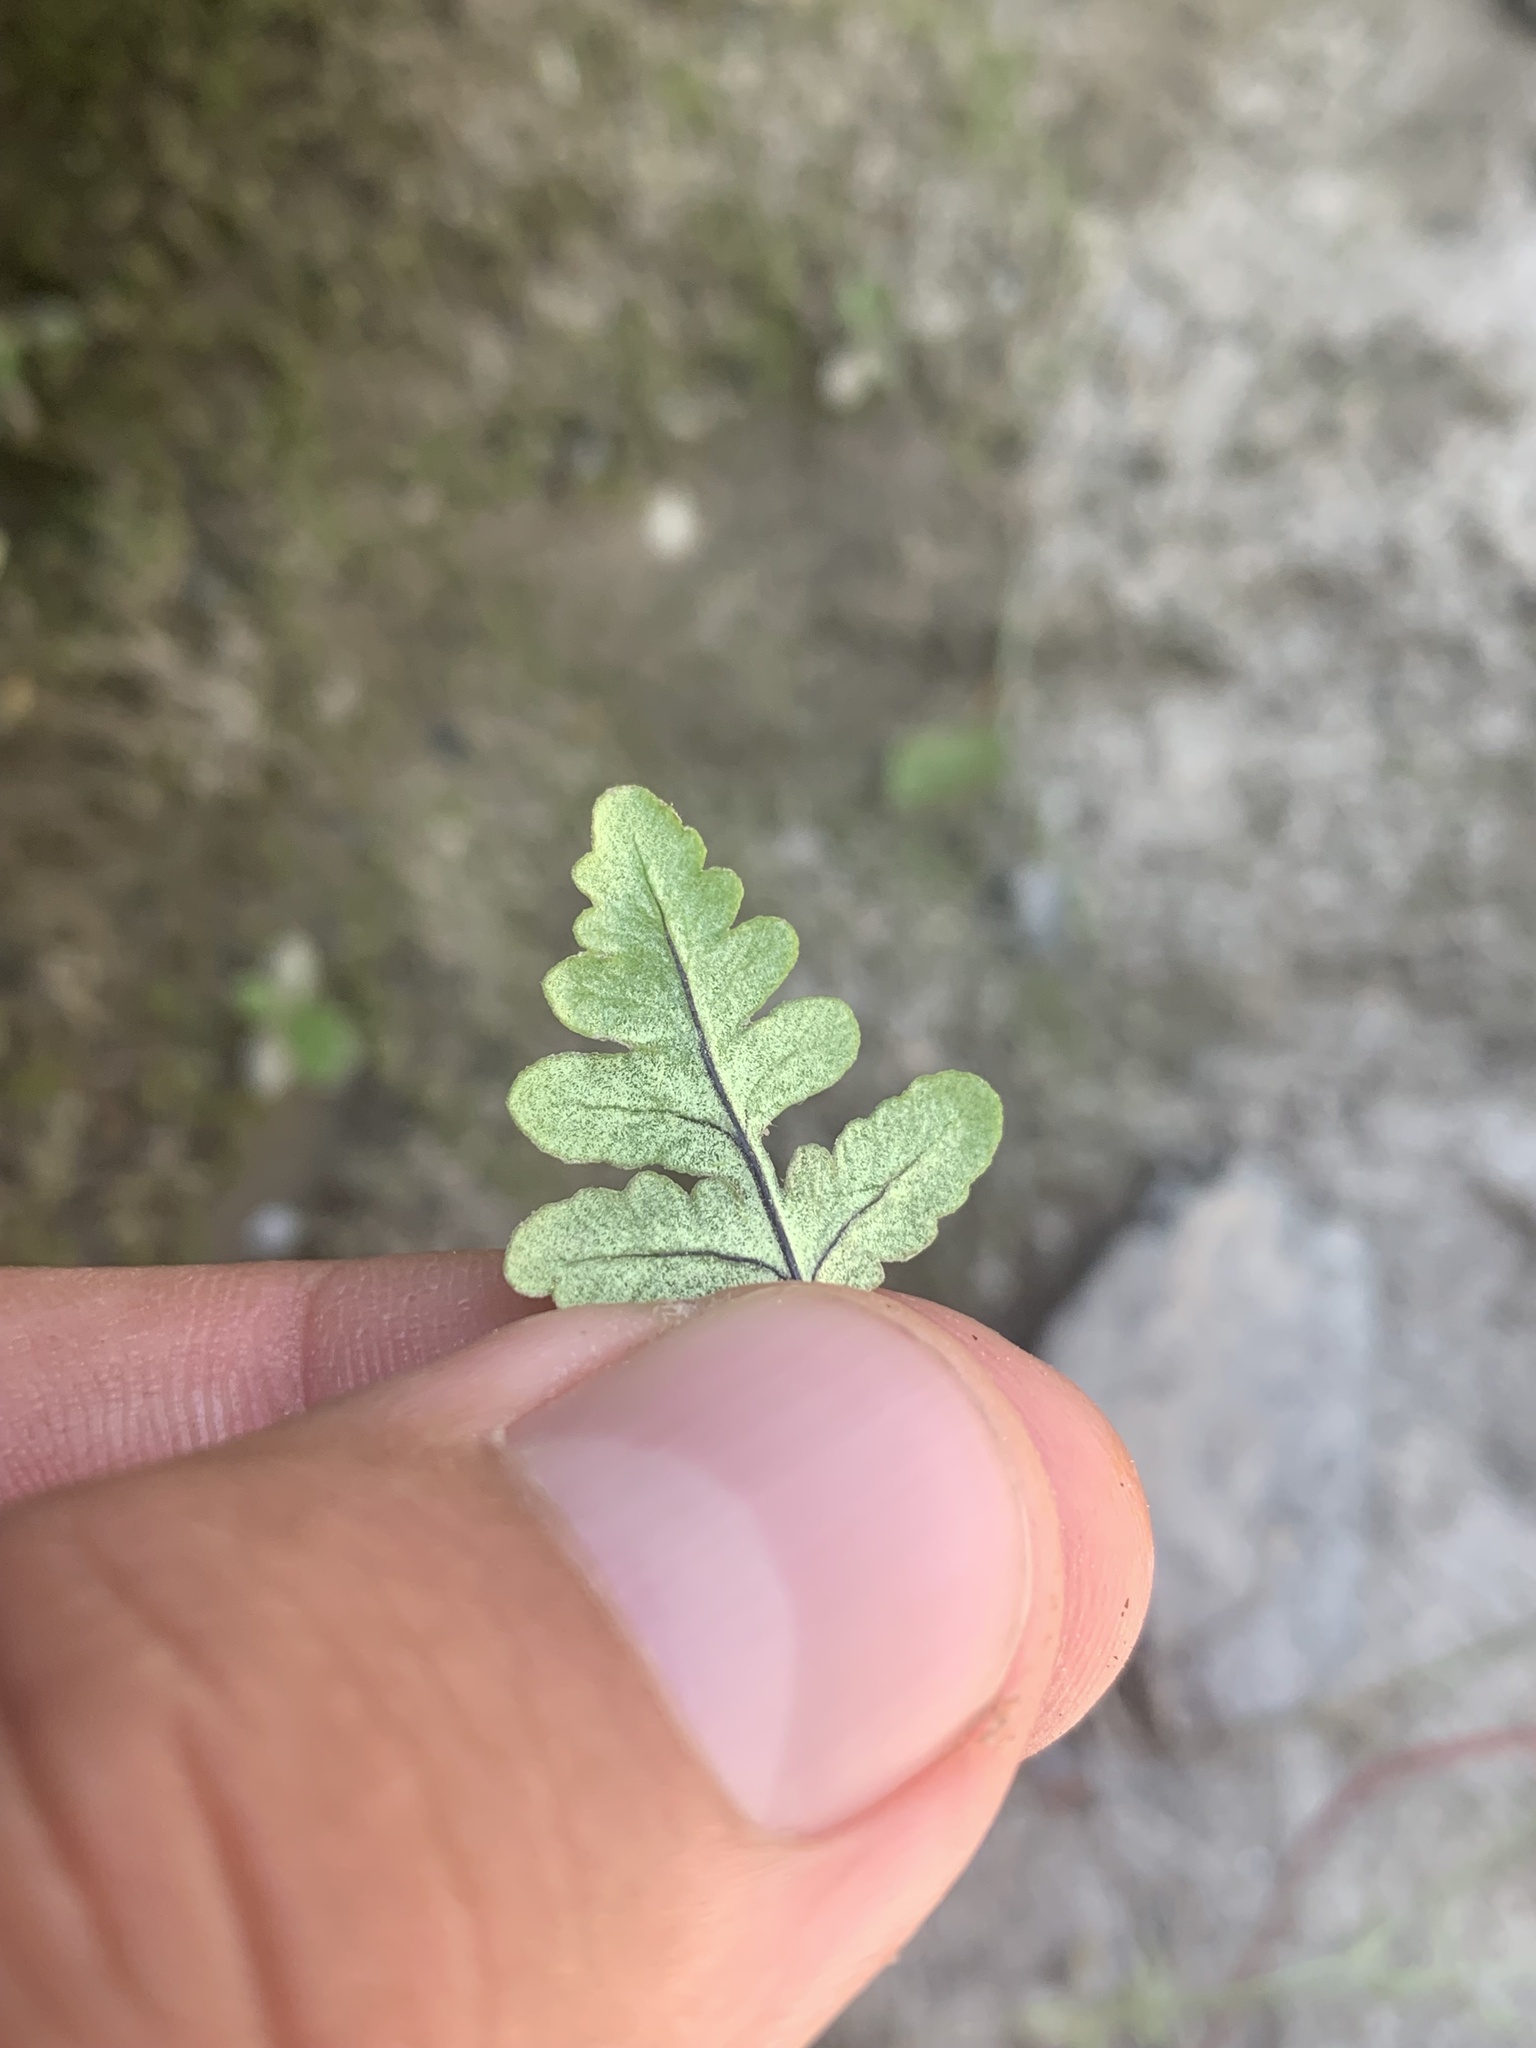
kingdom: Plantae
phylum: Tracheophyta
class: Polypodiopsida
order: Polypodiales
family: Pteridaceae
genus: Pentagramma
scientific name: Pentagramma triangularis
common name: Gold fern
